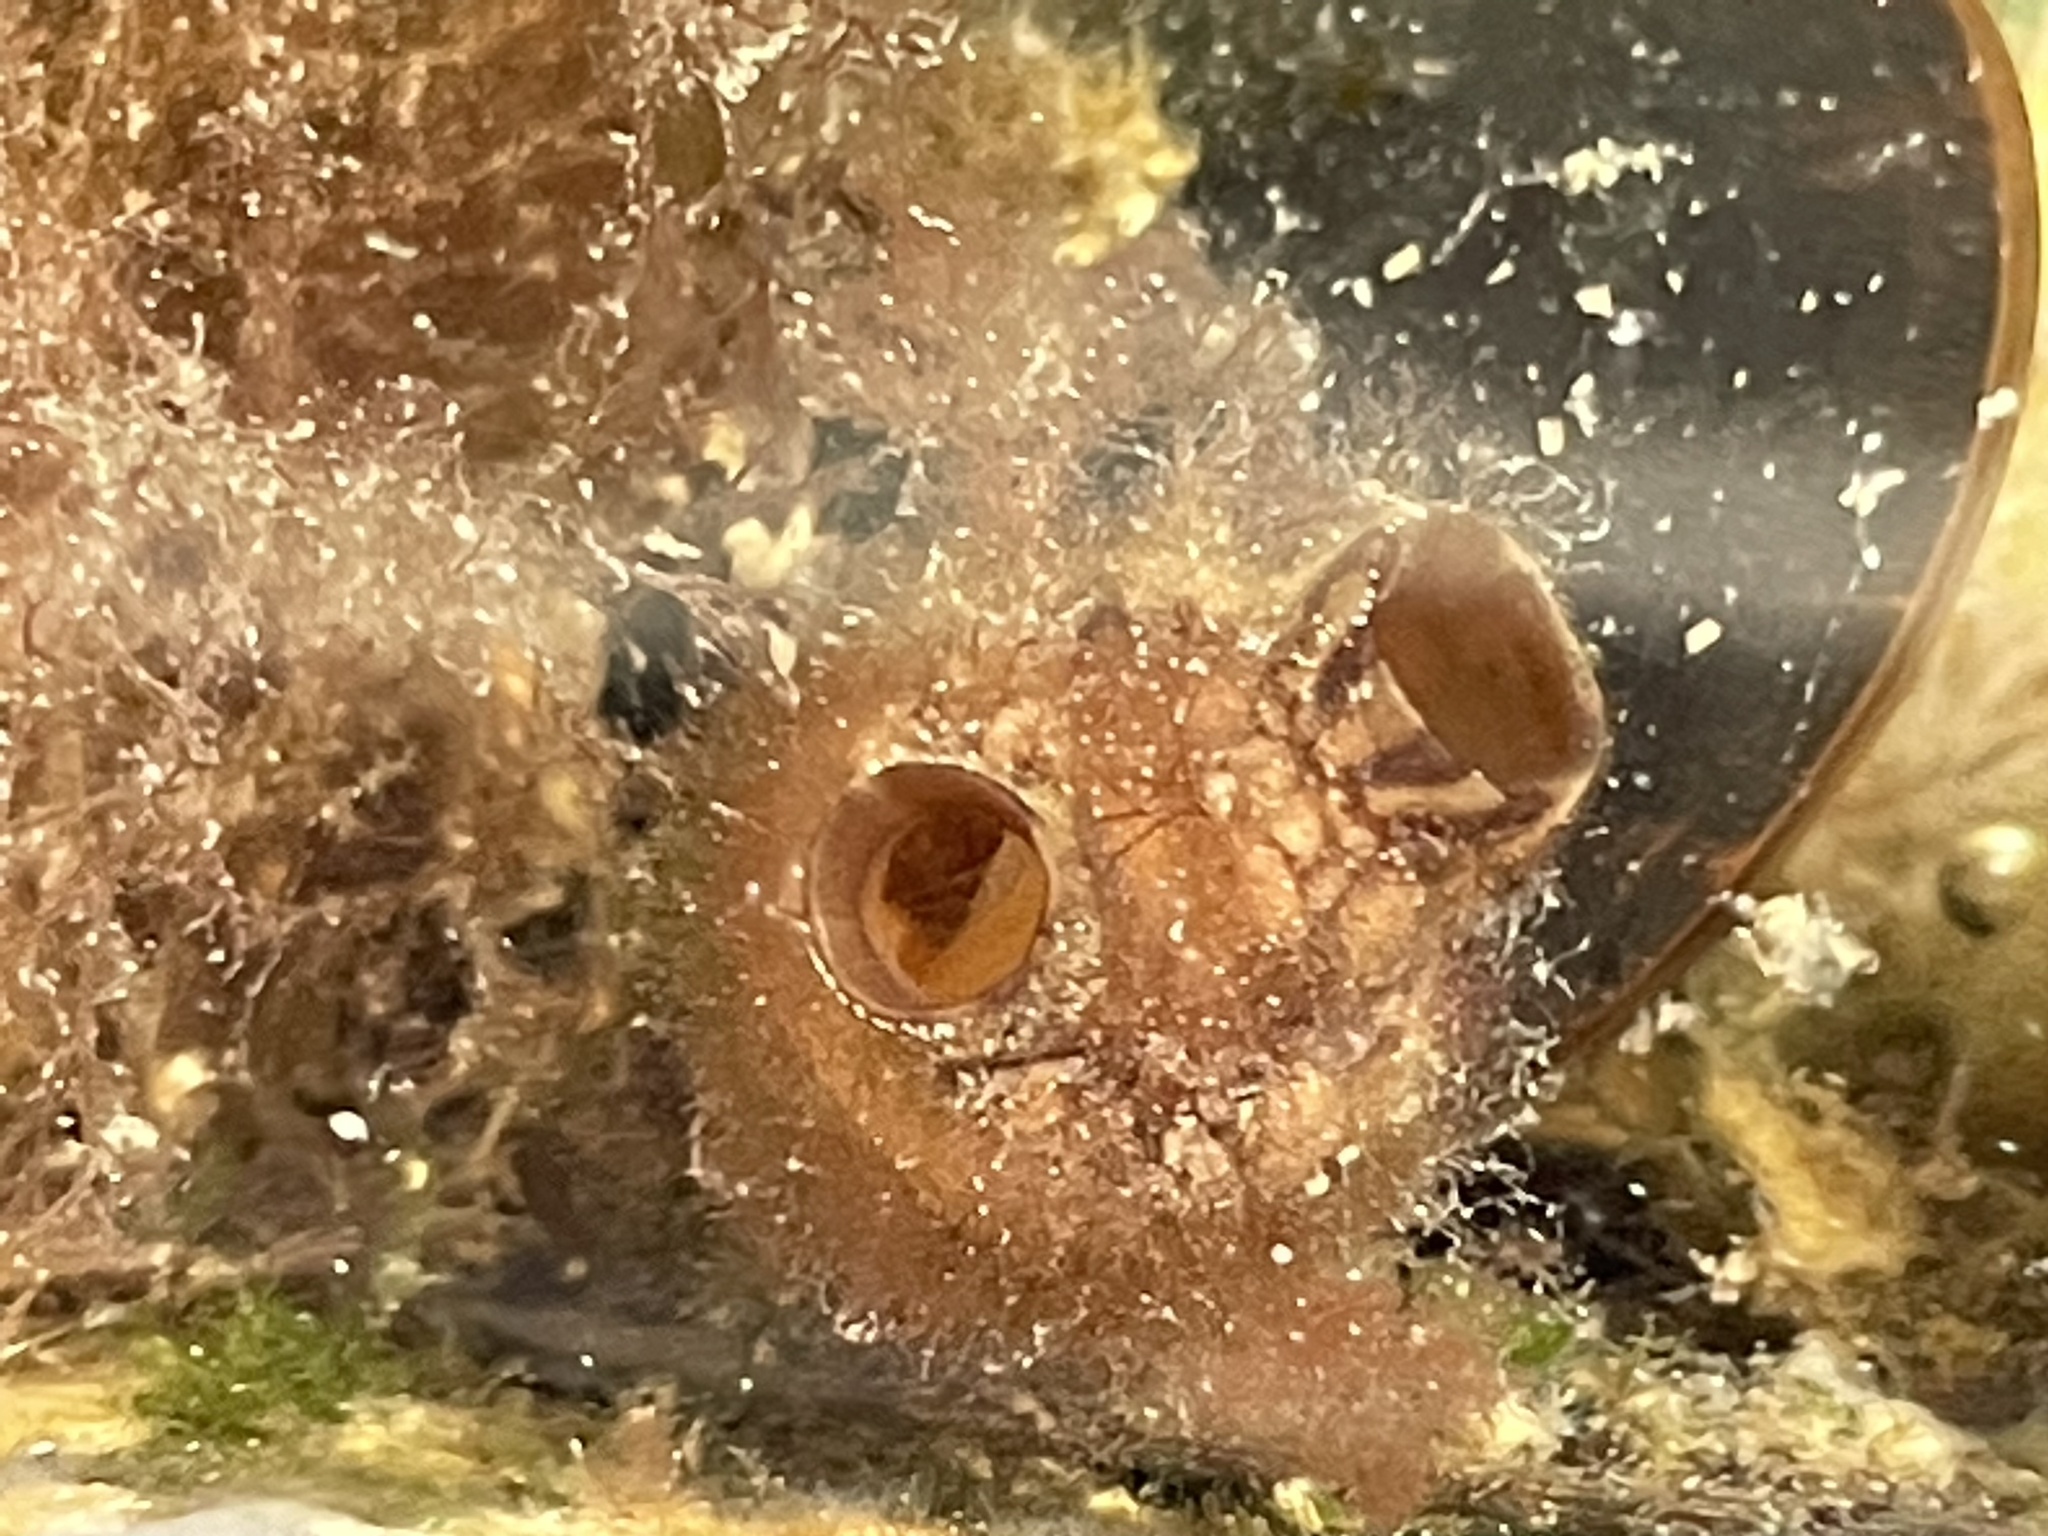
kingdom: Animalia
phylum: Chordata
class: Ascidiacea
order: Stolidobranchia
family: Styelidae
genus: Styela
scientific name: Styela clava
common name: Leathery sea squirt
